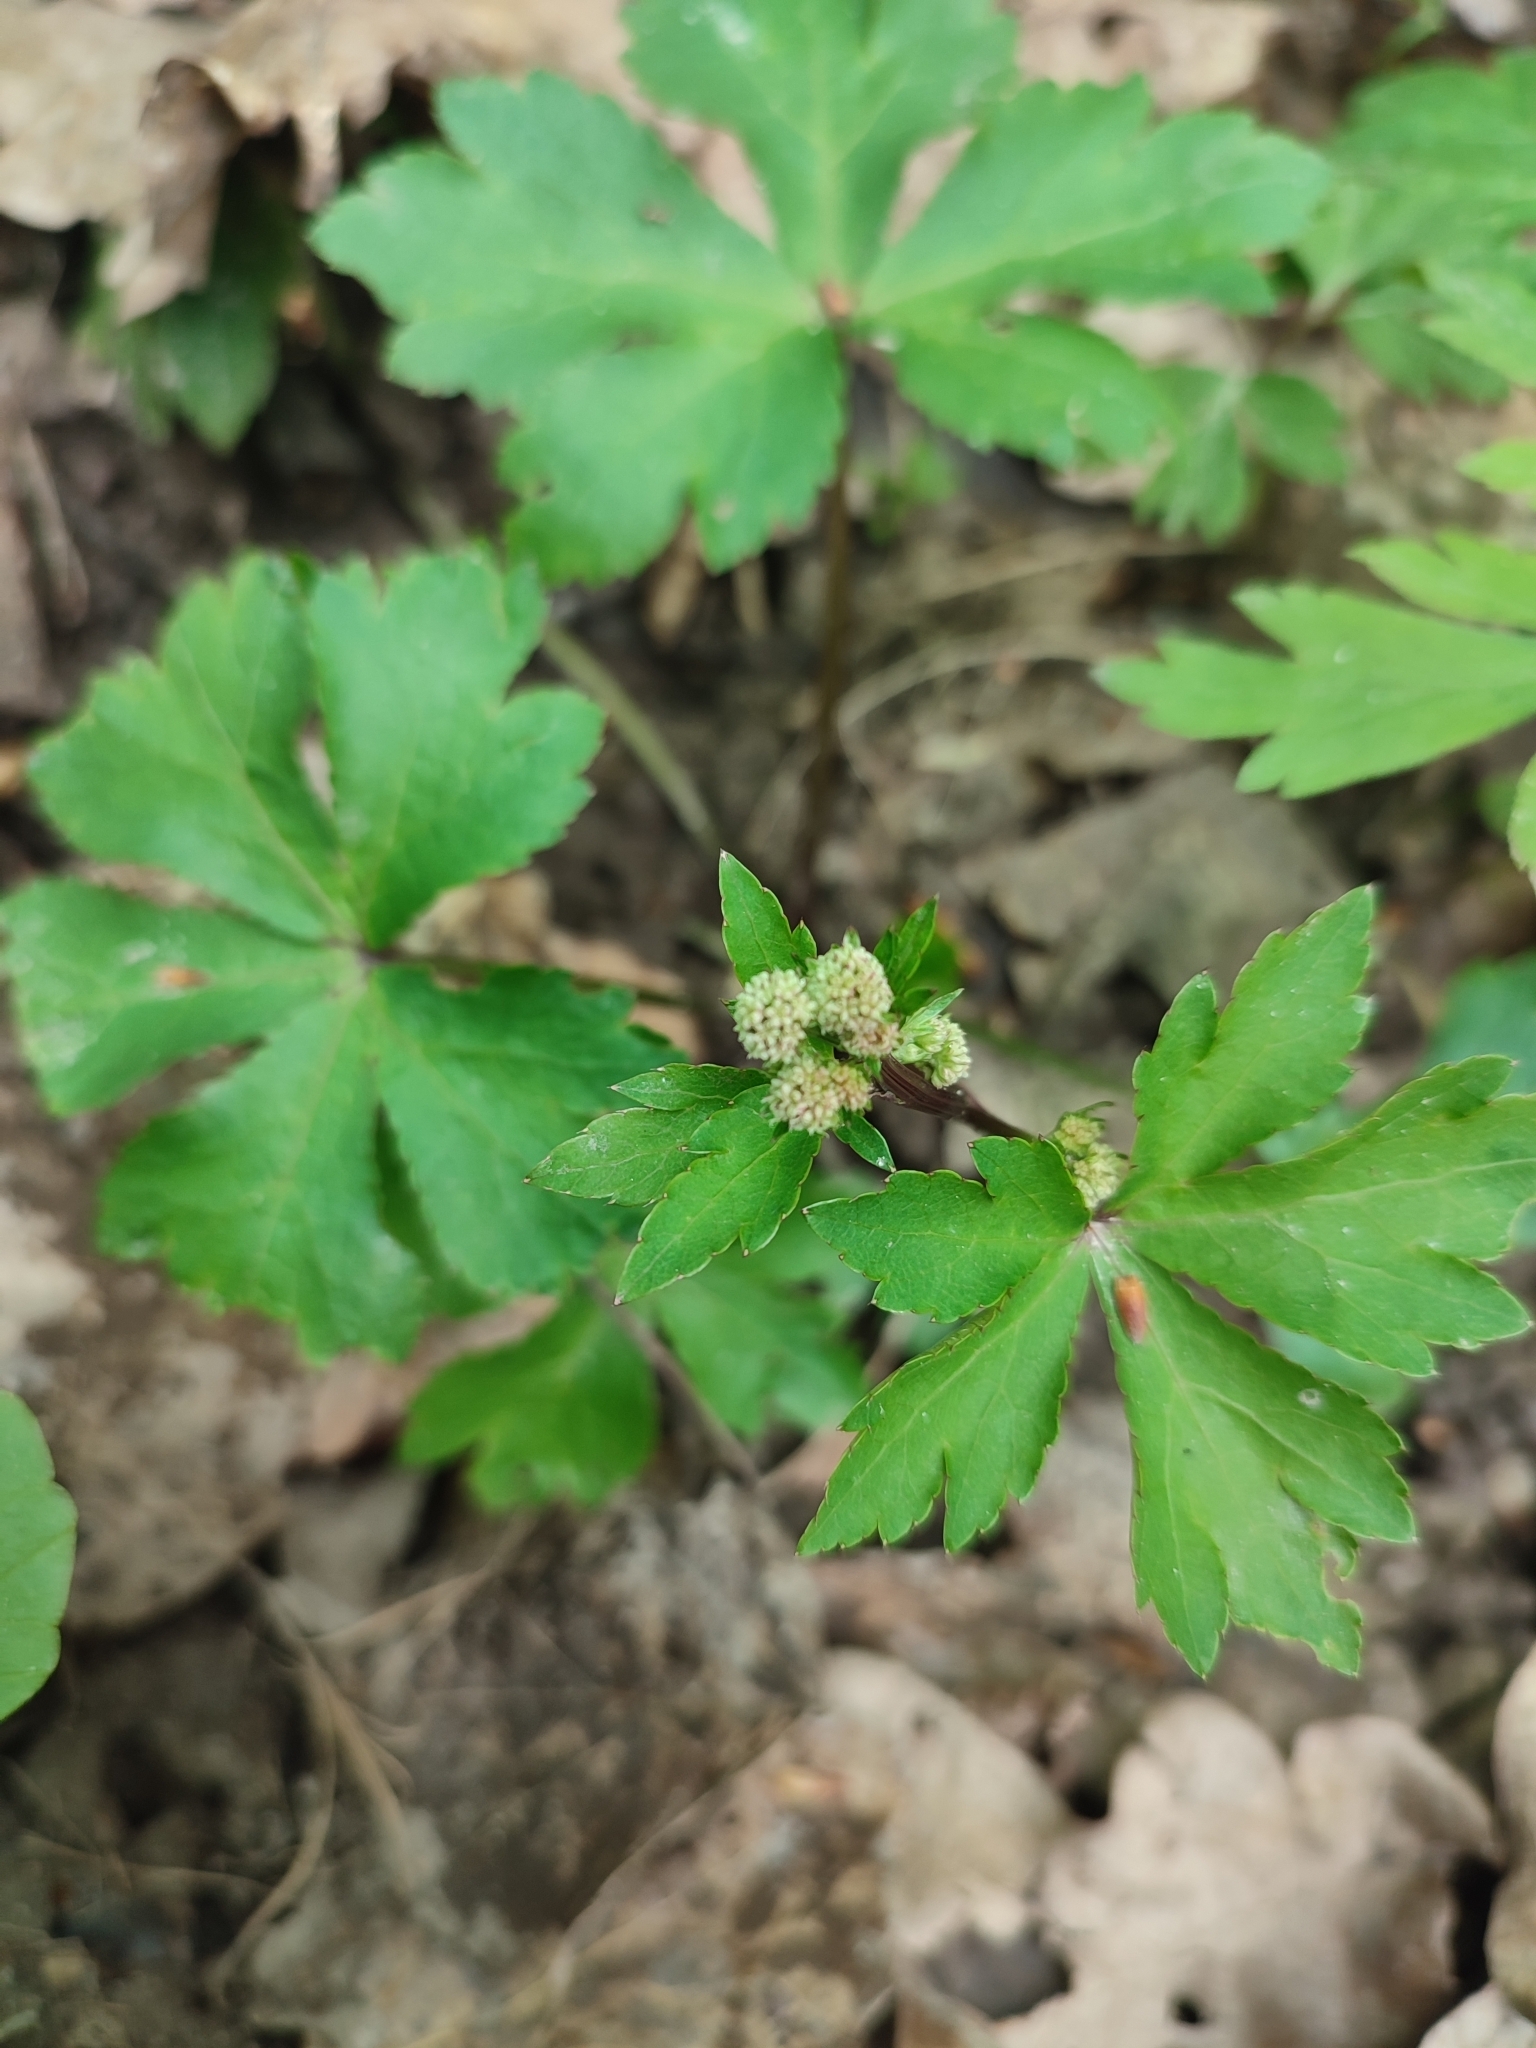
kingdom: Plantae
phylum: Tracheophyta
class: Magnoliopsida
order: Apiales
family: Apiaceae
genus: Sanicula
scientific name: Sanicula europaea
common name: Sanicle
